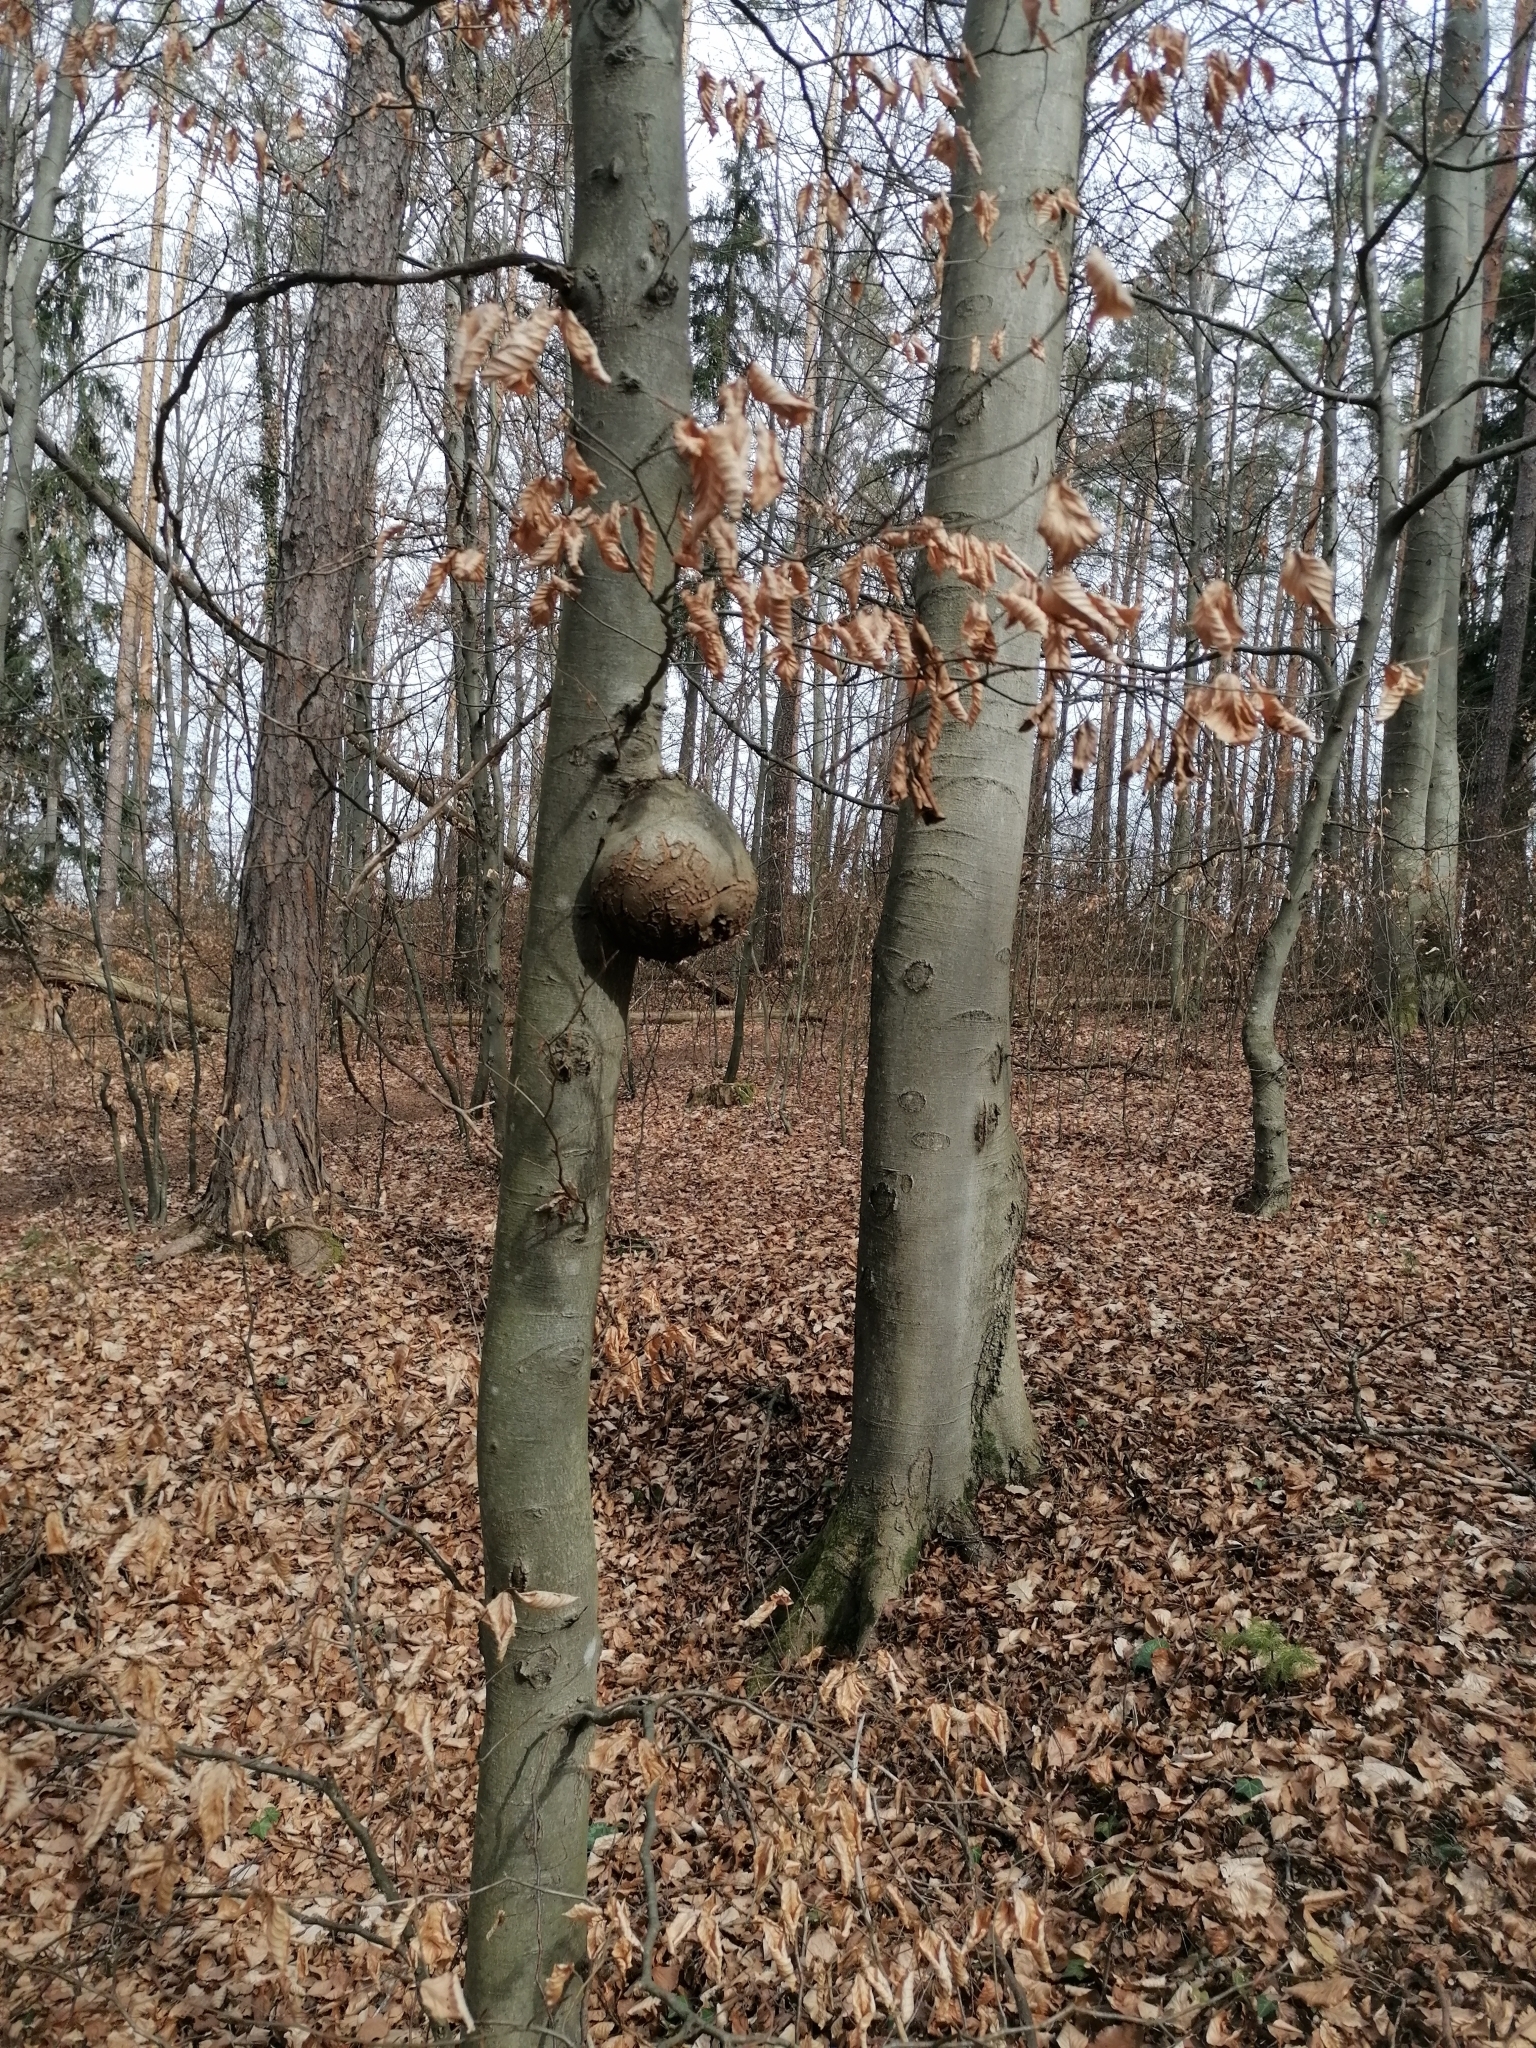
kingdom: Bacteria
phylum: Proteobacteria
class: Alphaproteobacteria
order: Rhizobiales
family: Rhizobiaceae
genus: Rhizobium
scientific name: Rhizobium Agrobacterium radiobacter
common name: Bacterial crown gall
